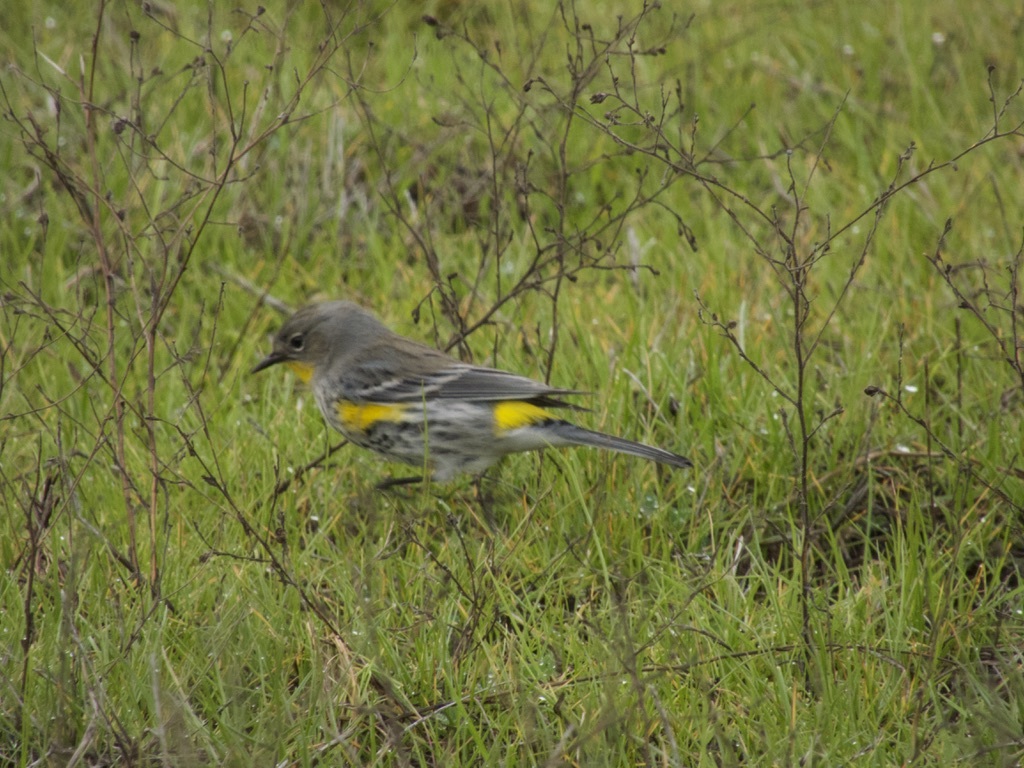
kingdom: Animalia
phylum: Chordata
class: Aves
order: Passeriformes
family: Parulidae
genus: Setophaga
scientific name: Setophaga auduboni
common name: Audubon's warbler
